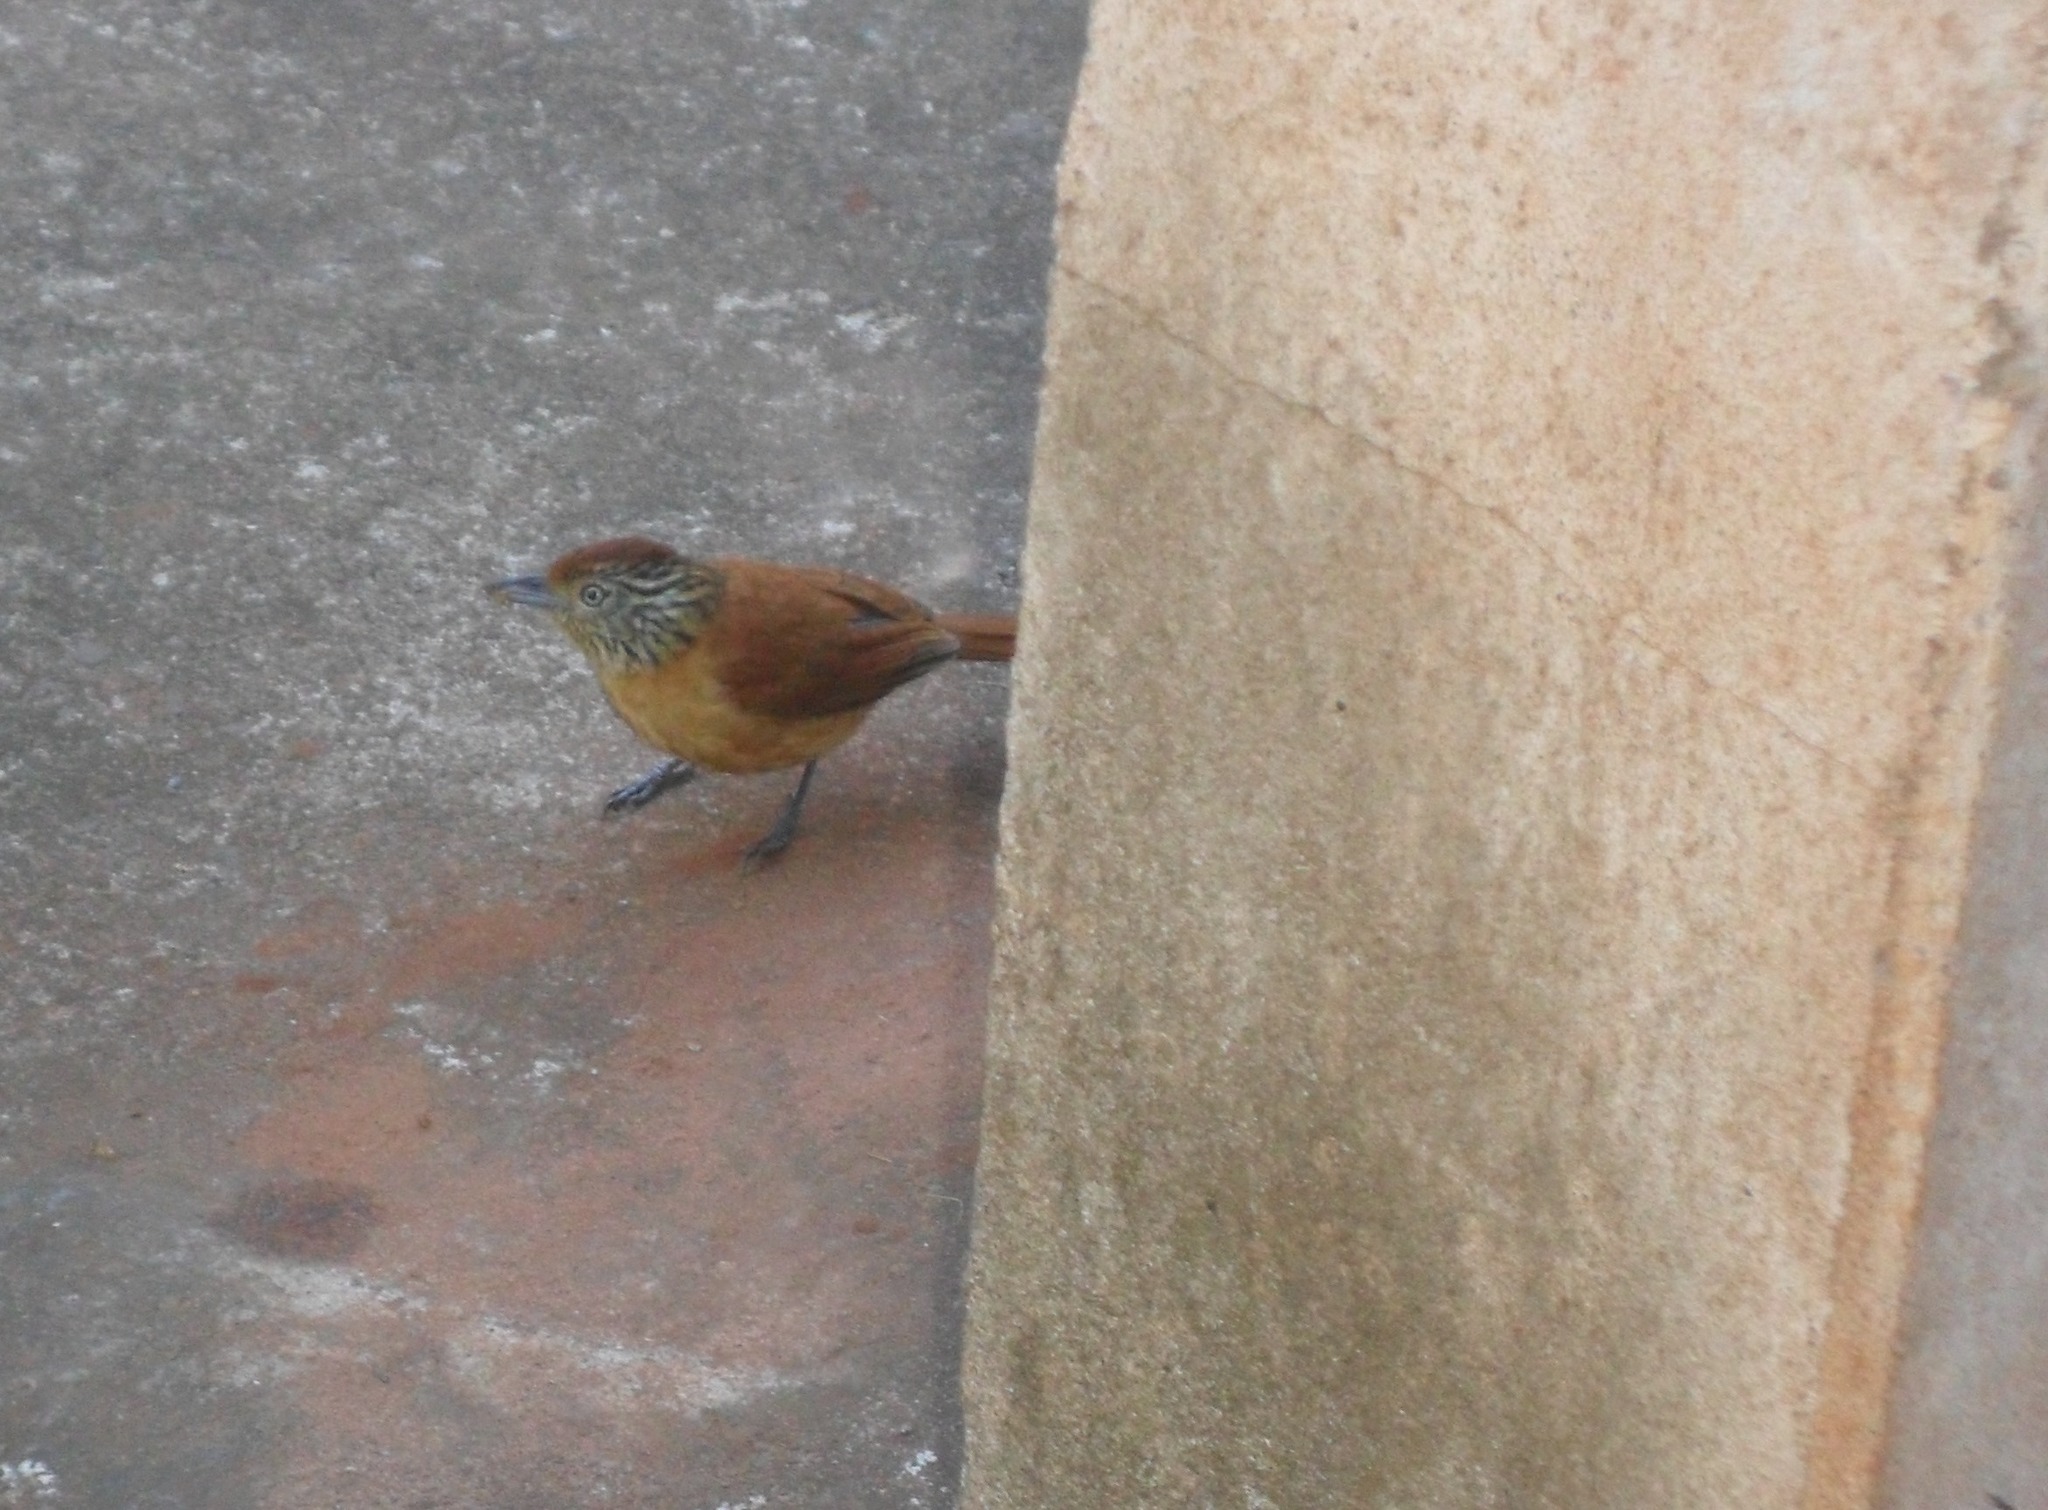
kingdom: Animalia
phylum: Chordata
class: Aves
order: Passeriformes
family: Thamnophilidae
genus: Thamnophilus
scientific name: Thamnophilus doliatus
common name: Barred antshrike
